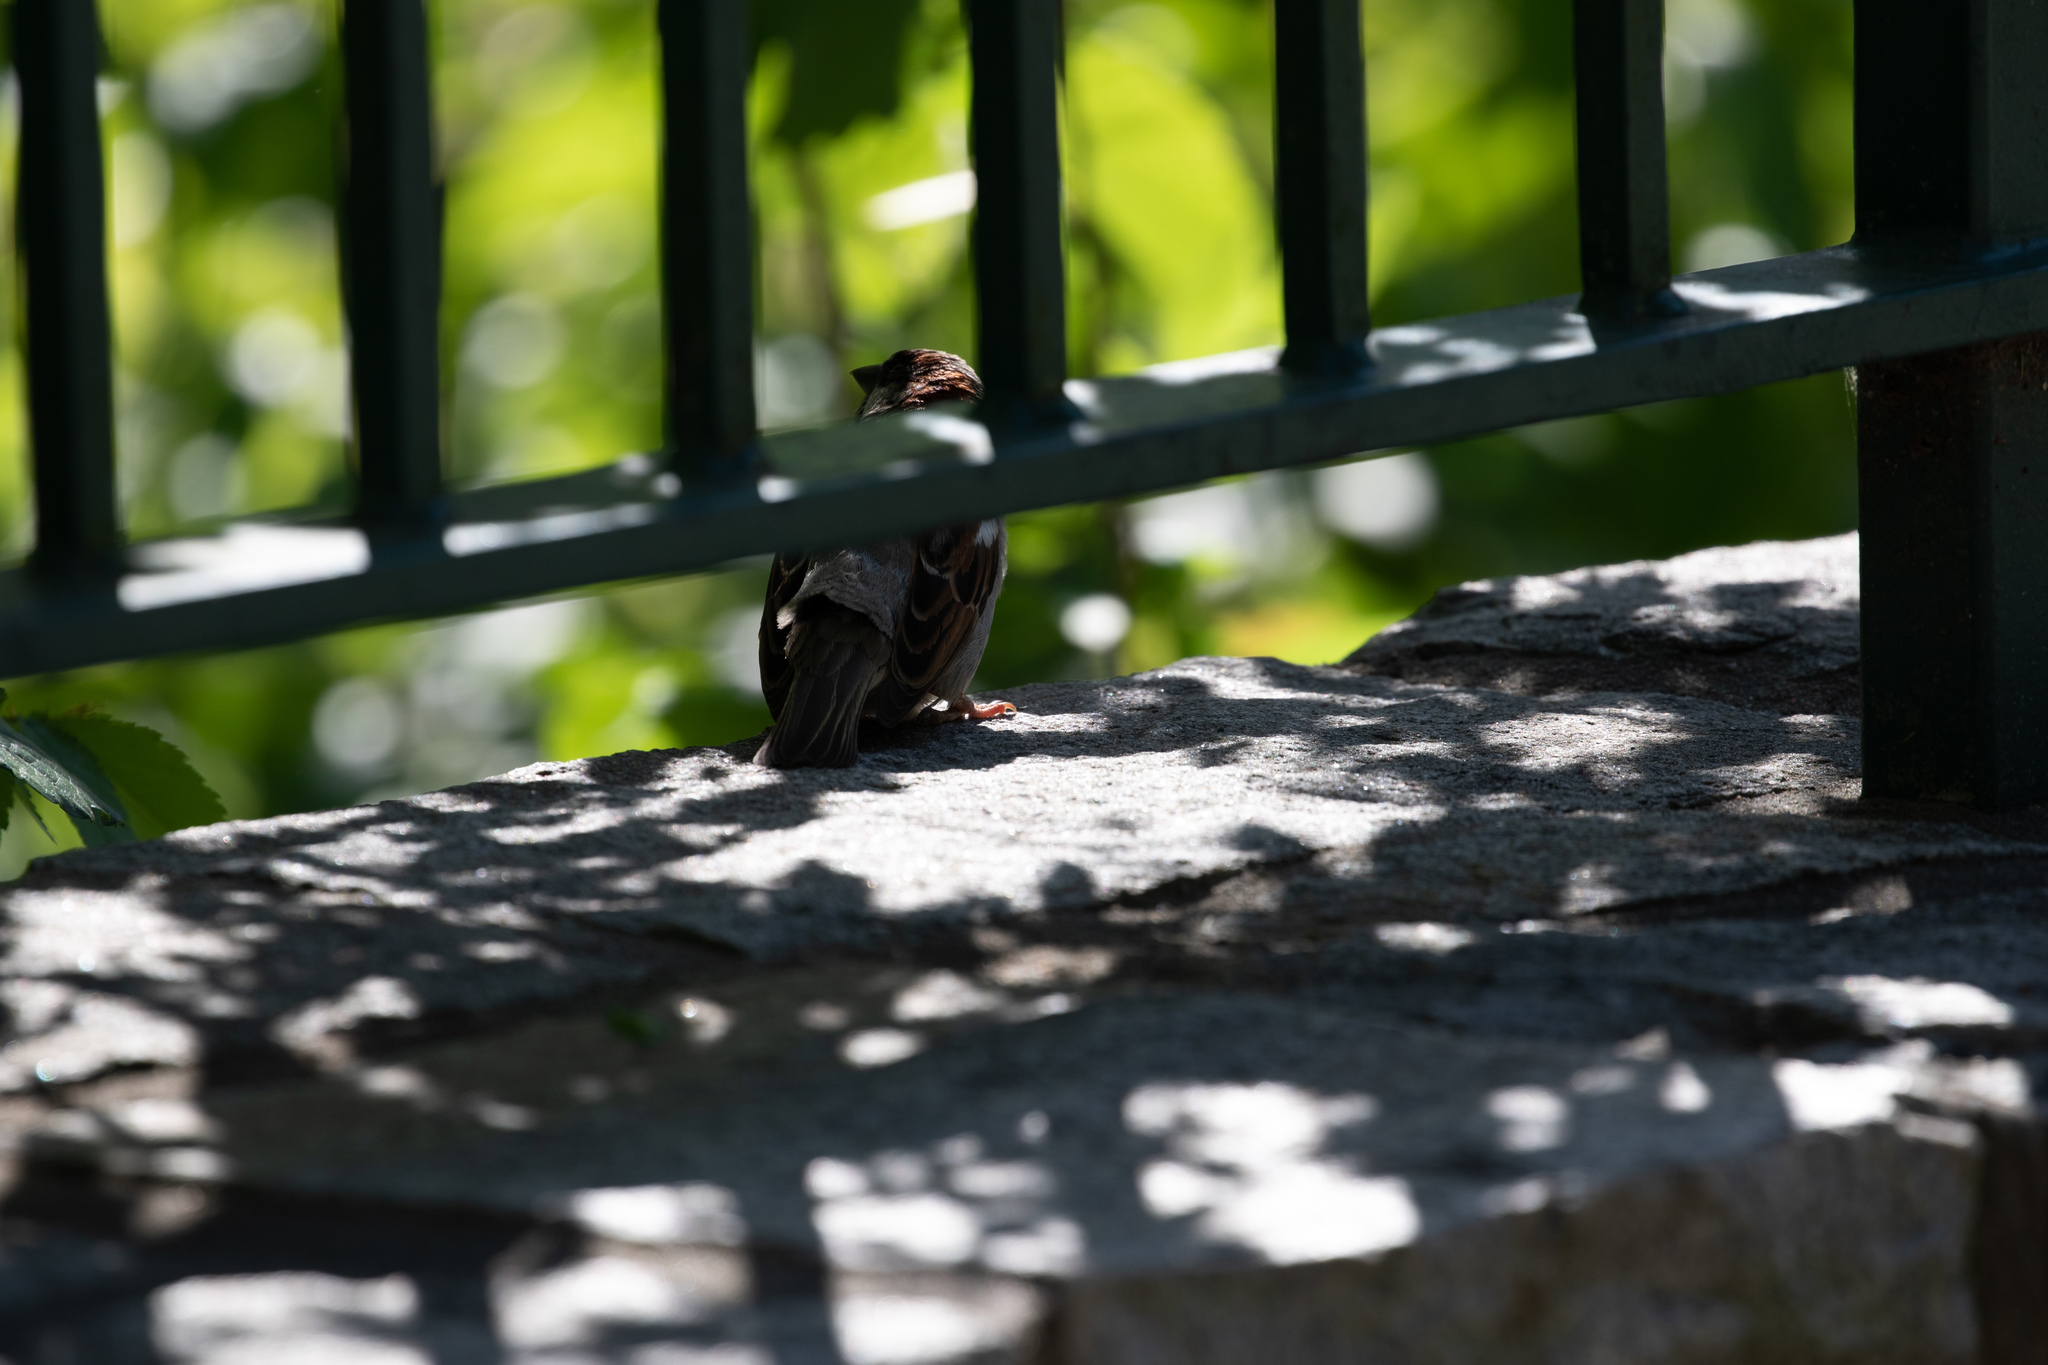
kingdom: Animalia
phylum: Chordata
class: Aves
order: Passeriformes
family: Passeridae
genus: Passer
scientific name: Passer domesticus
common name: House sparrow
